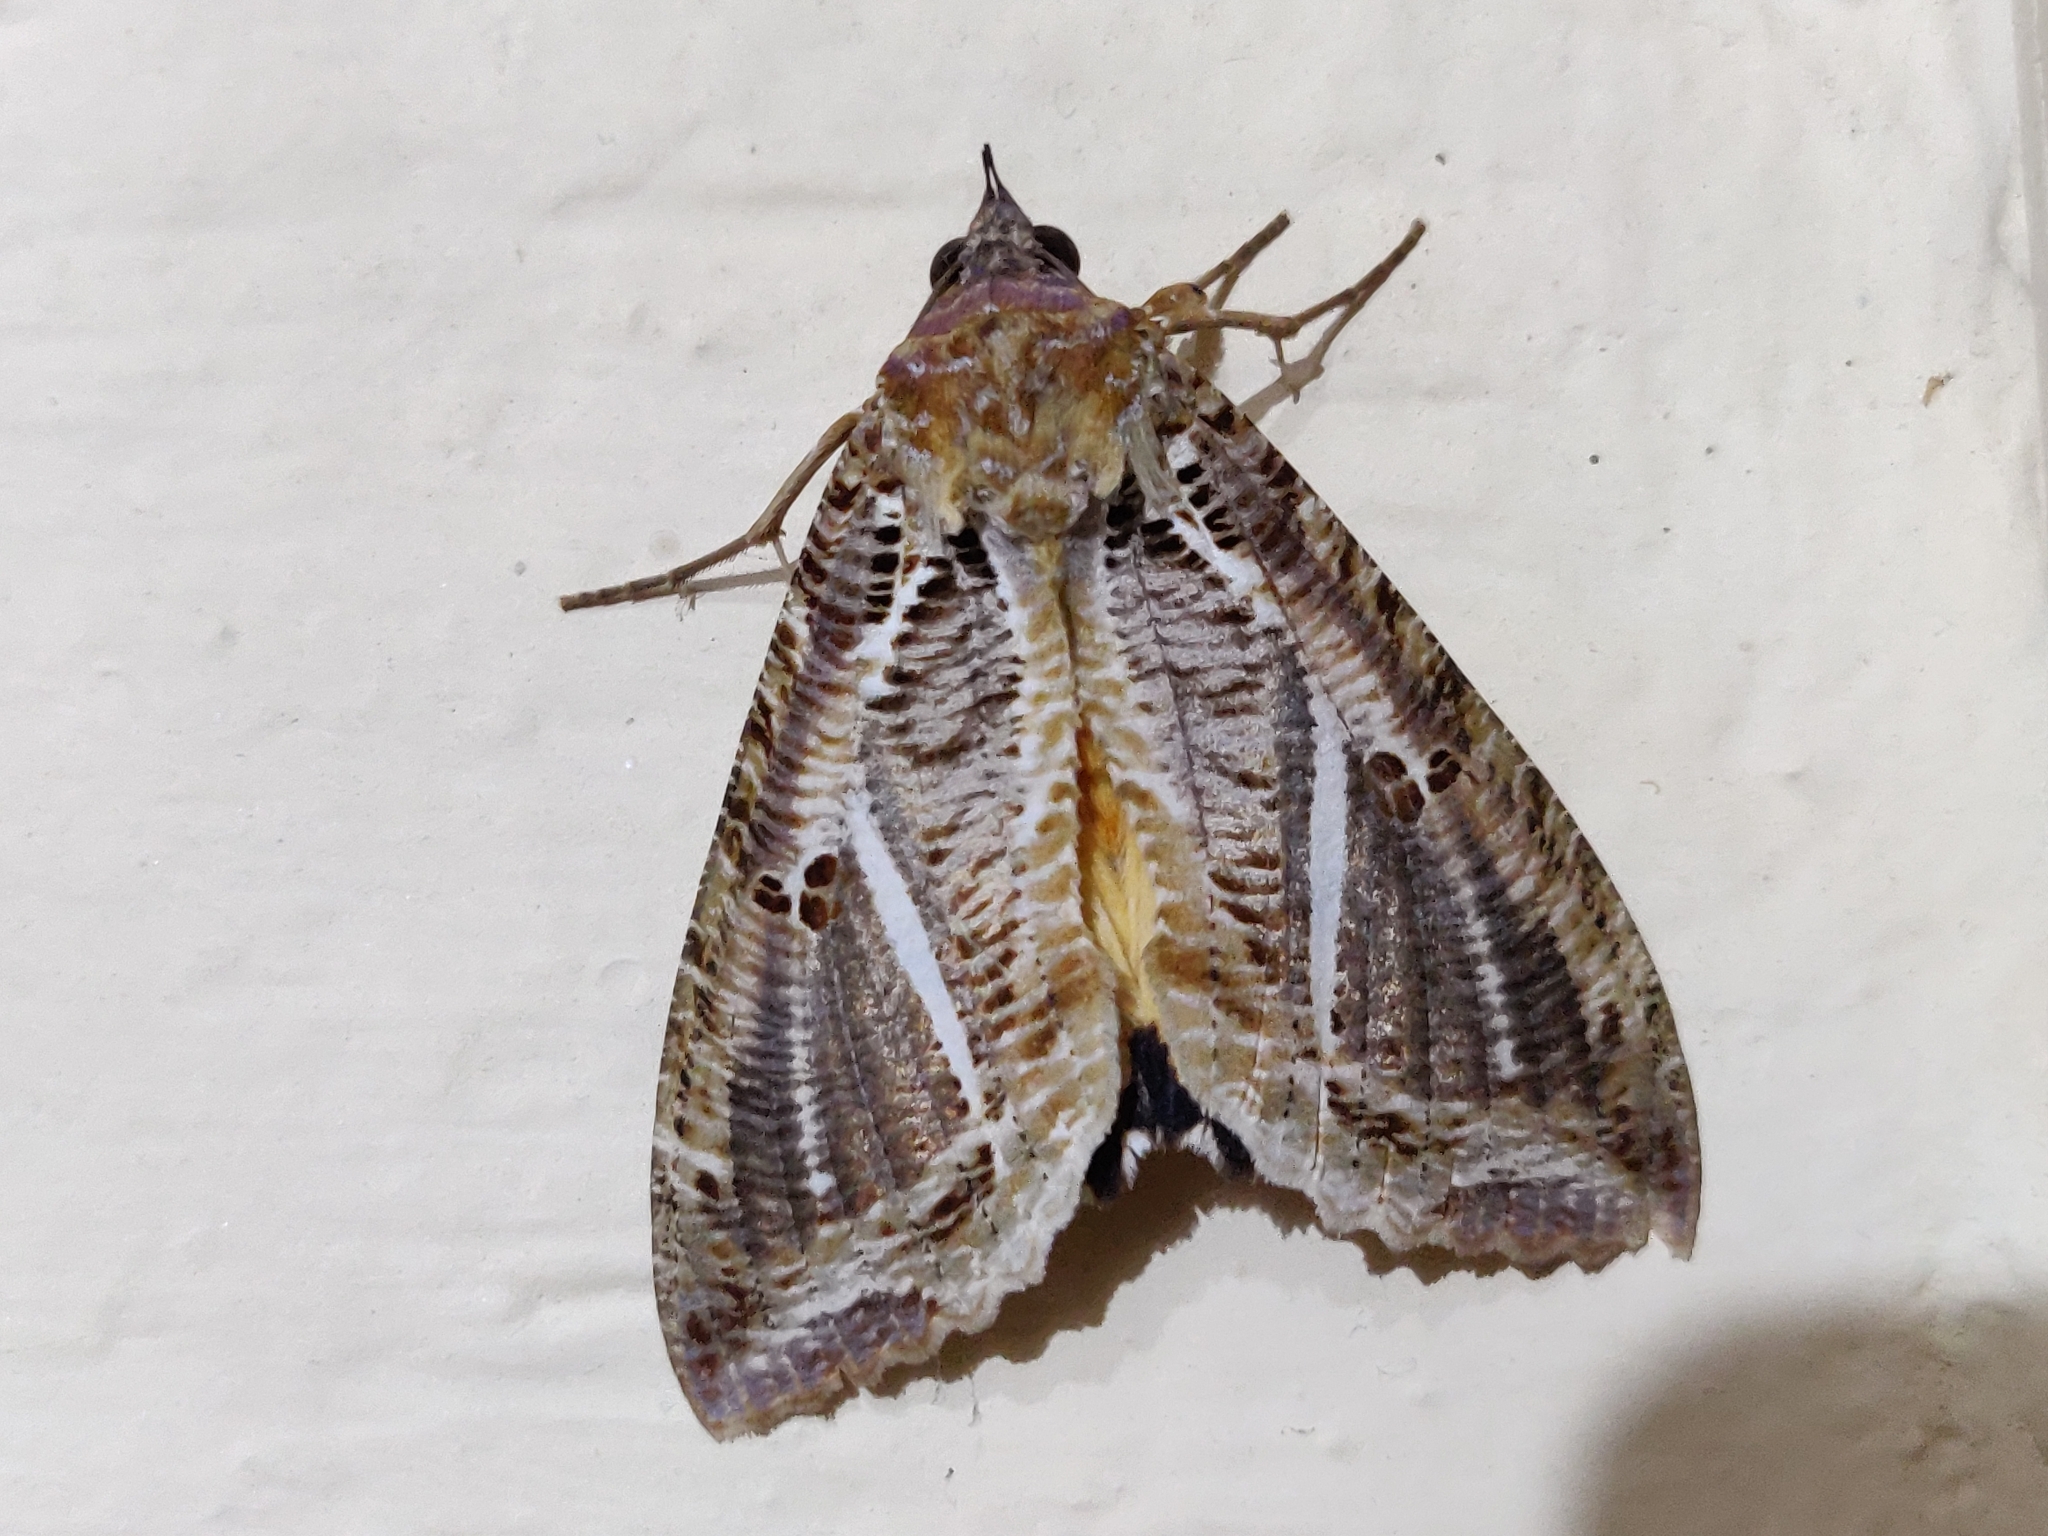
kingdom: Animalia
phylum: Arthropoda
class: Insecta
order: Lepidoptera
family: Erebidae
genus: Eudocima
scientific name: Eudocima materna
